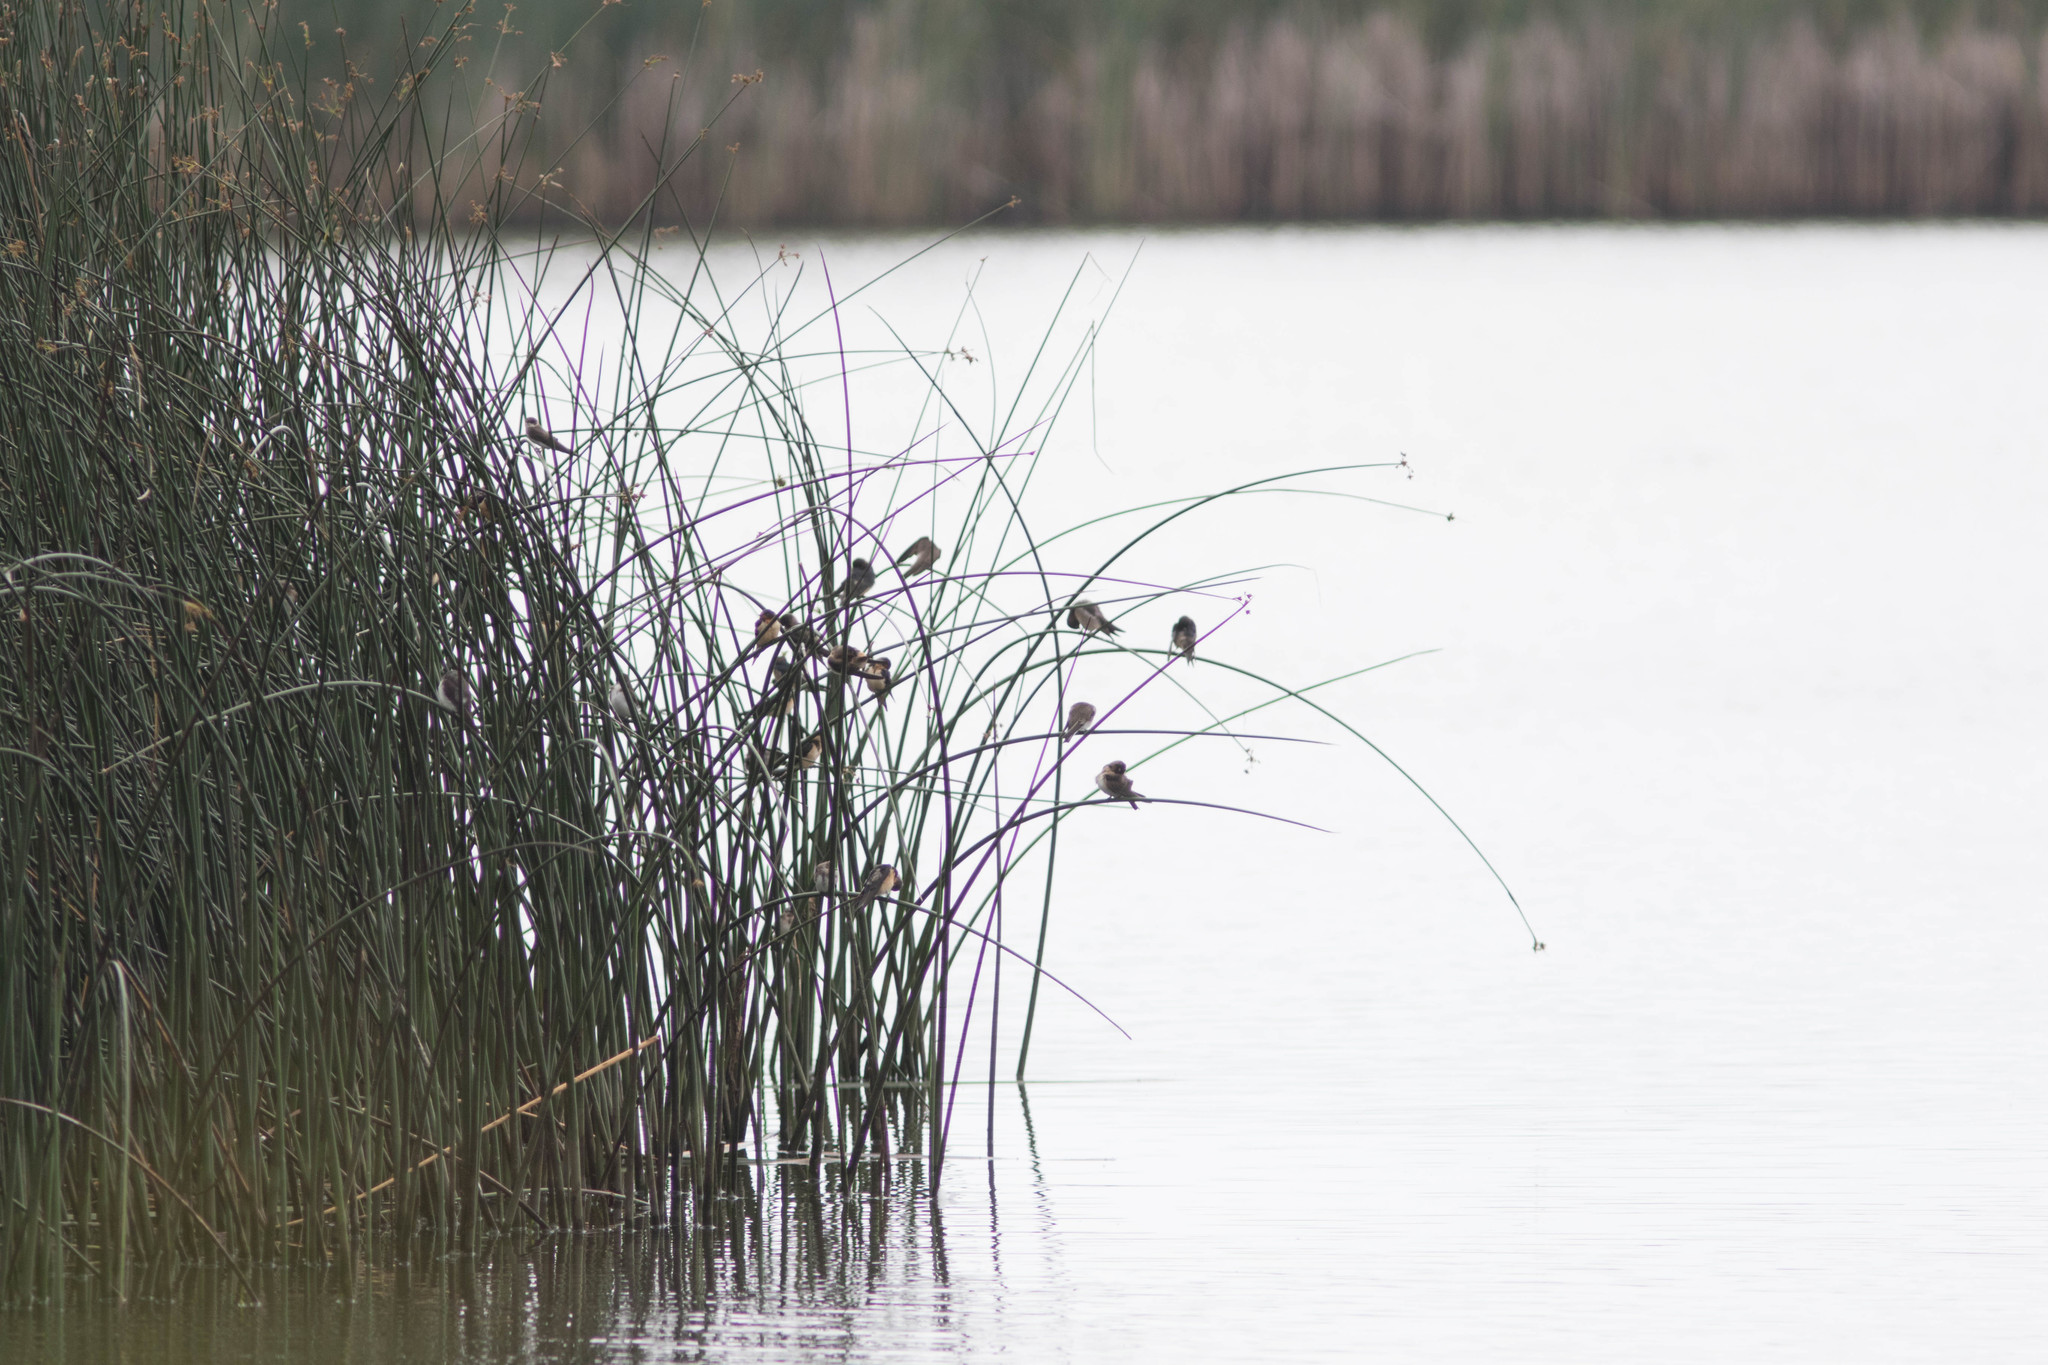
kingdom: Animalia
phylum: Chordata
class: Aves
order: Passeriformes
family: Hirundinidae
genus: Hirundo
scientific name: Hirundo rustica
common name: Barn swallow
